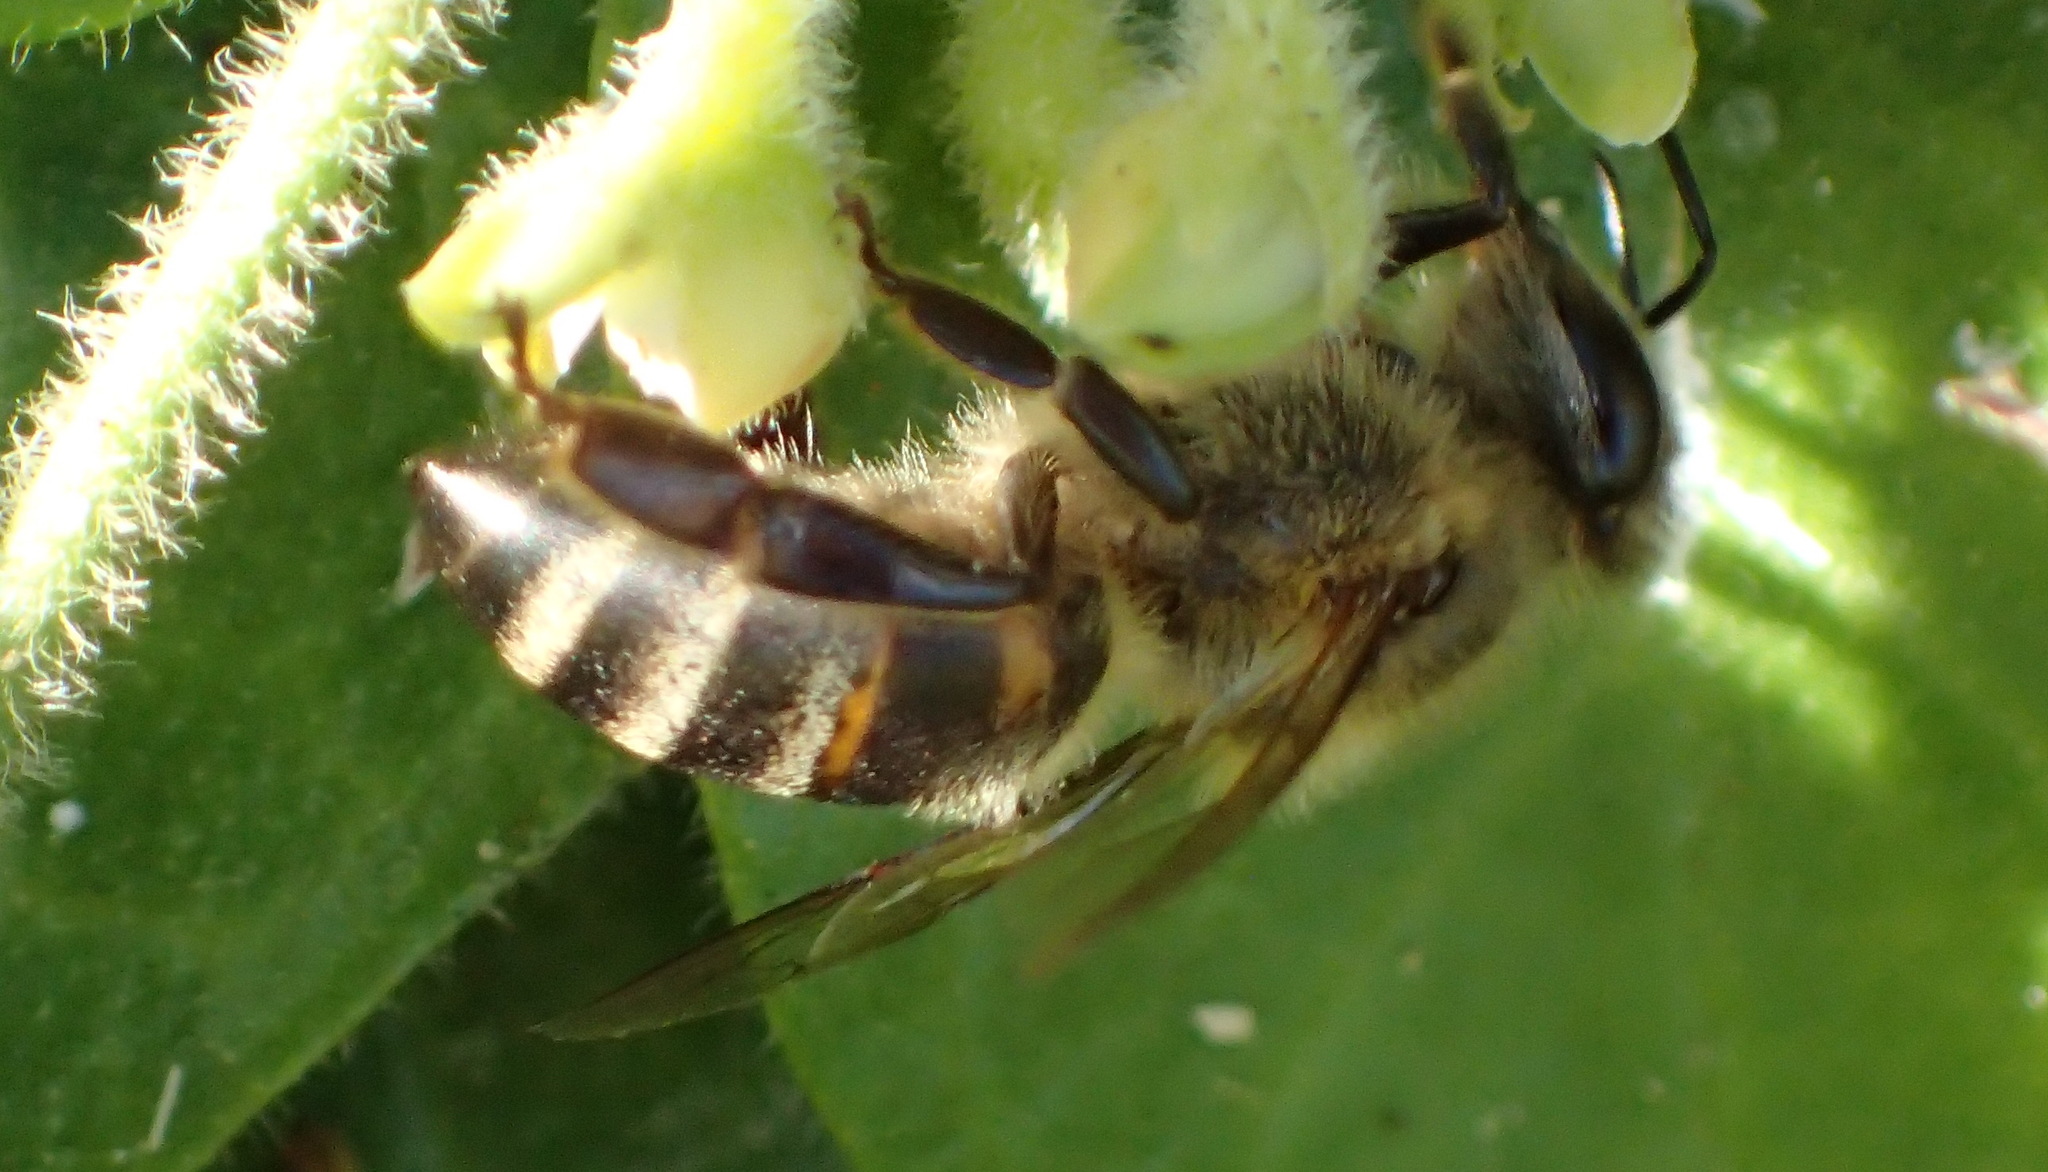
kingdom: Animalia
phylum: Arthropoda
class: Insecta
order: Hymenoptera
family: Apidae
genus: Apis
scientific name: Apis mellifera
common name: Honey bee
